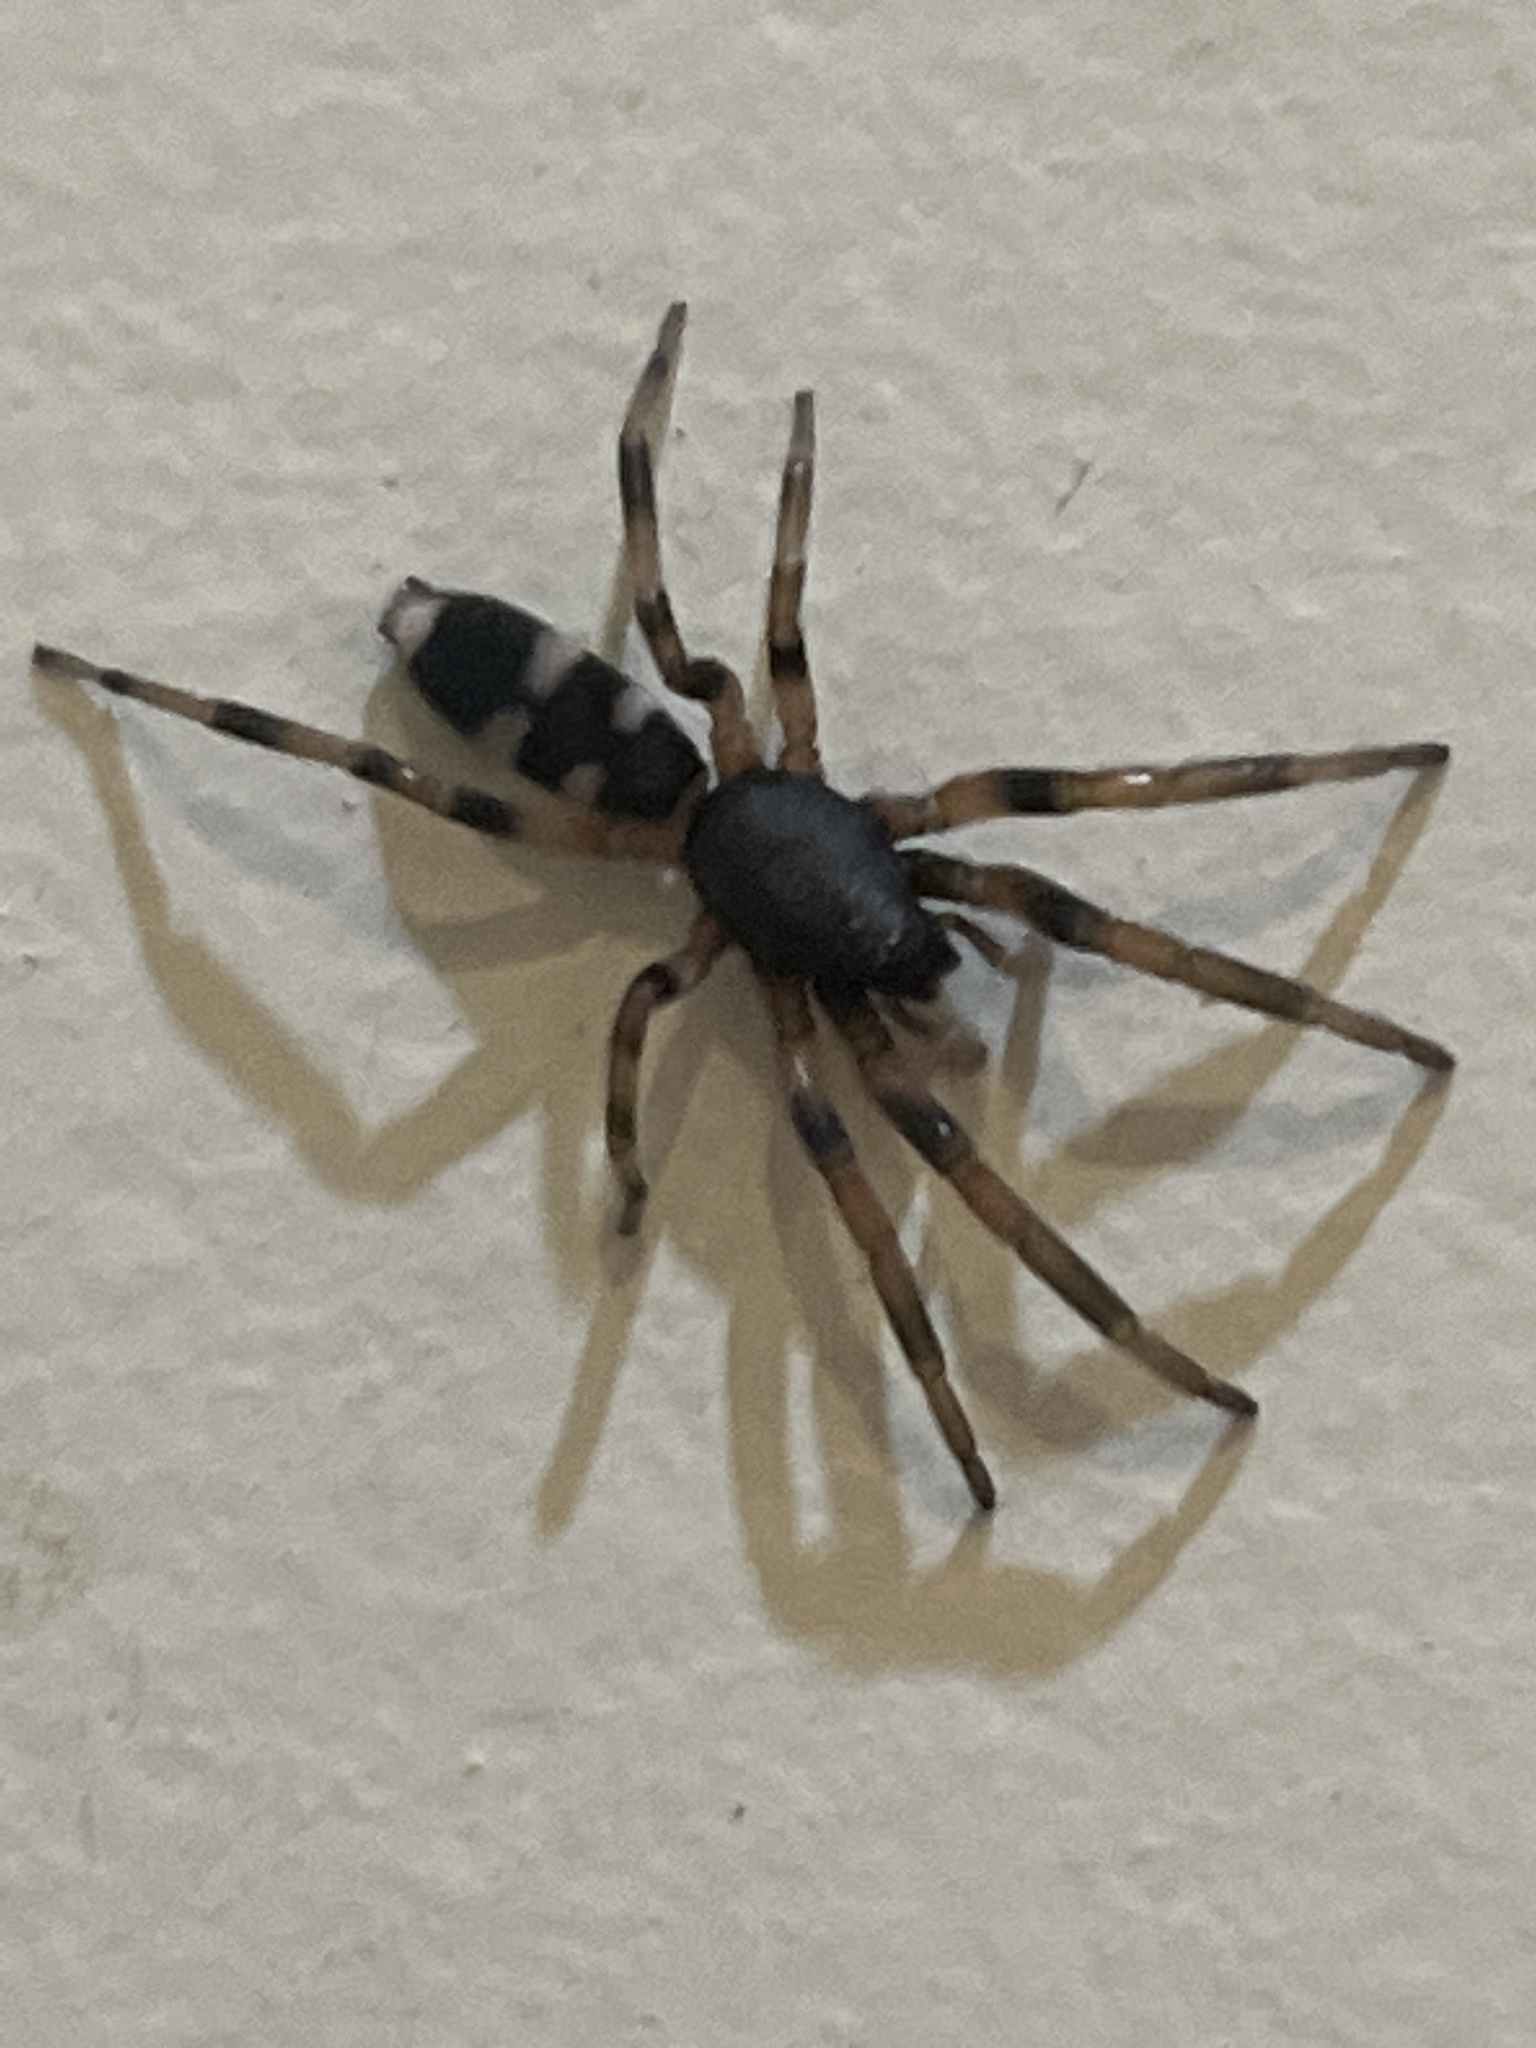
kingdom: Animalia
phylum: Arthropoda
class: Arachnida
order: Araneae
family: Lamponidae
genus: Lampona
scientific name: Lampona murina
